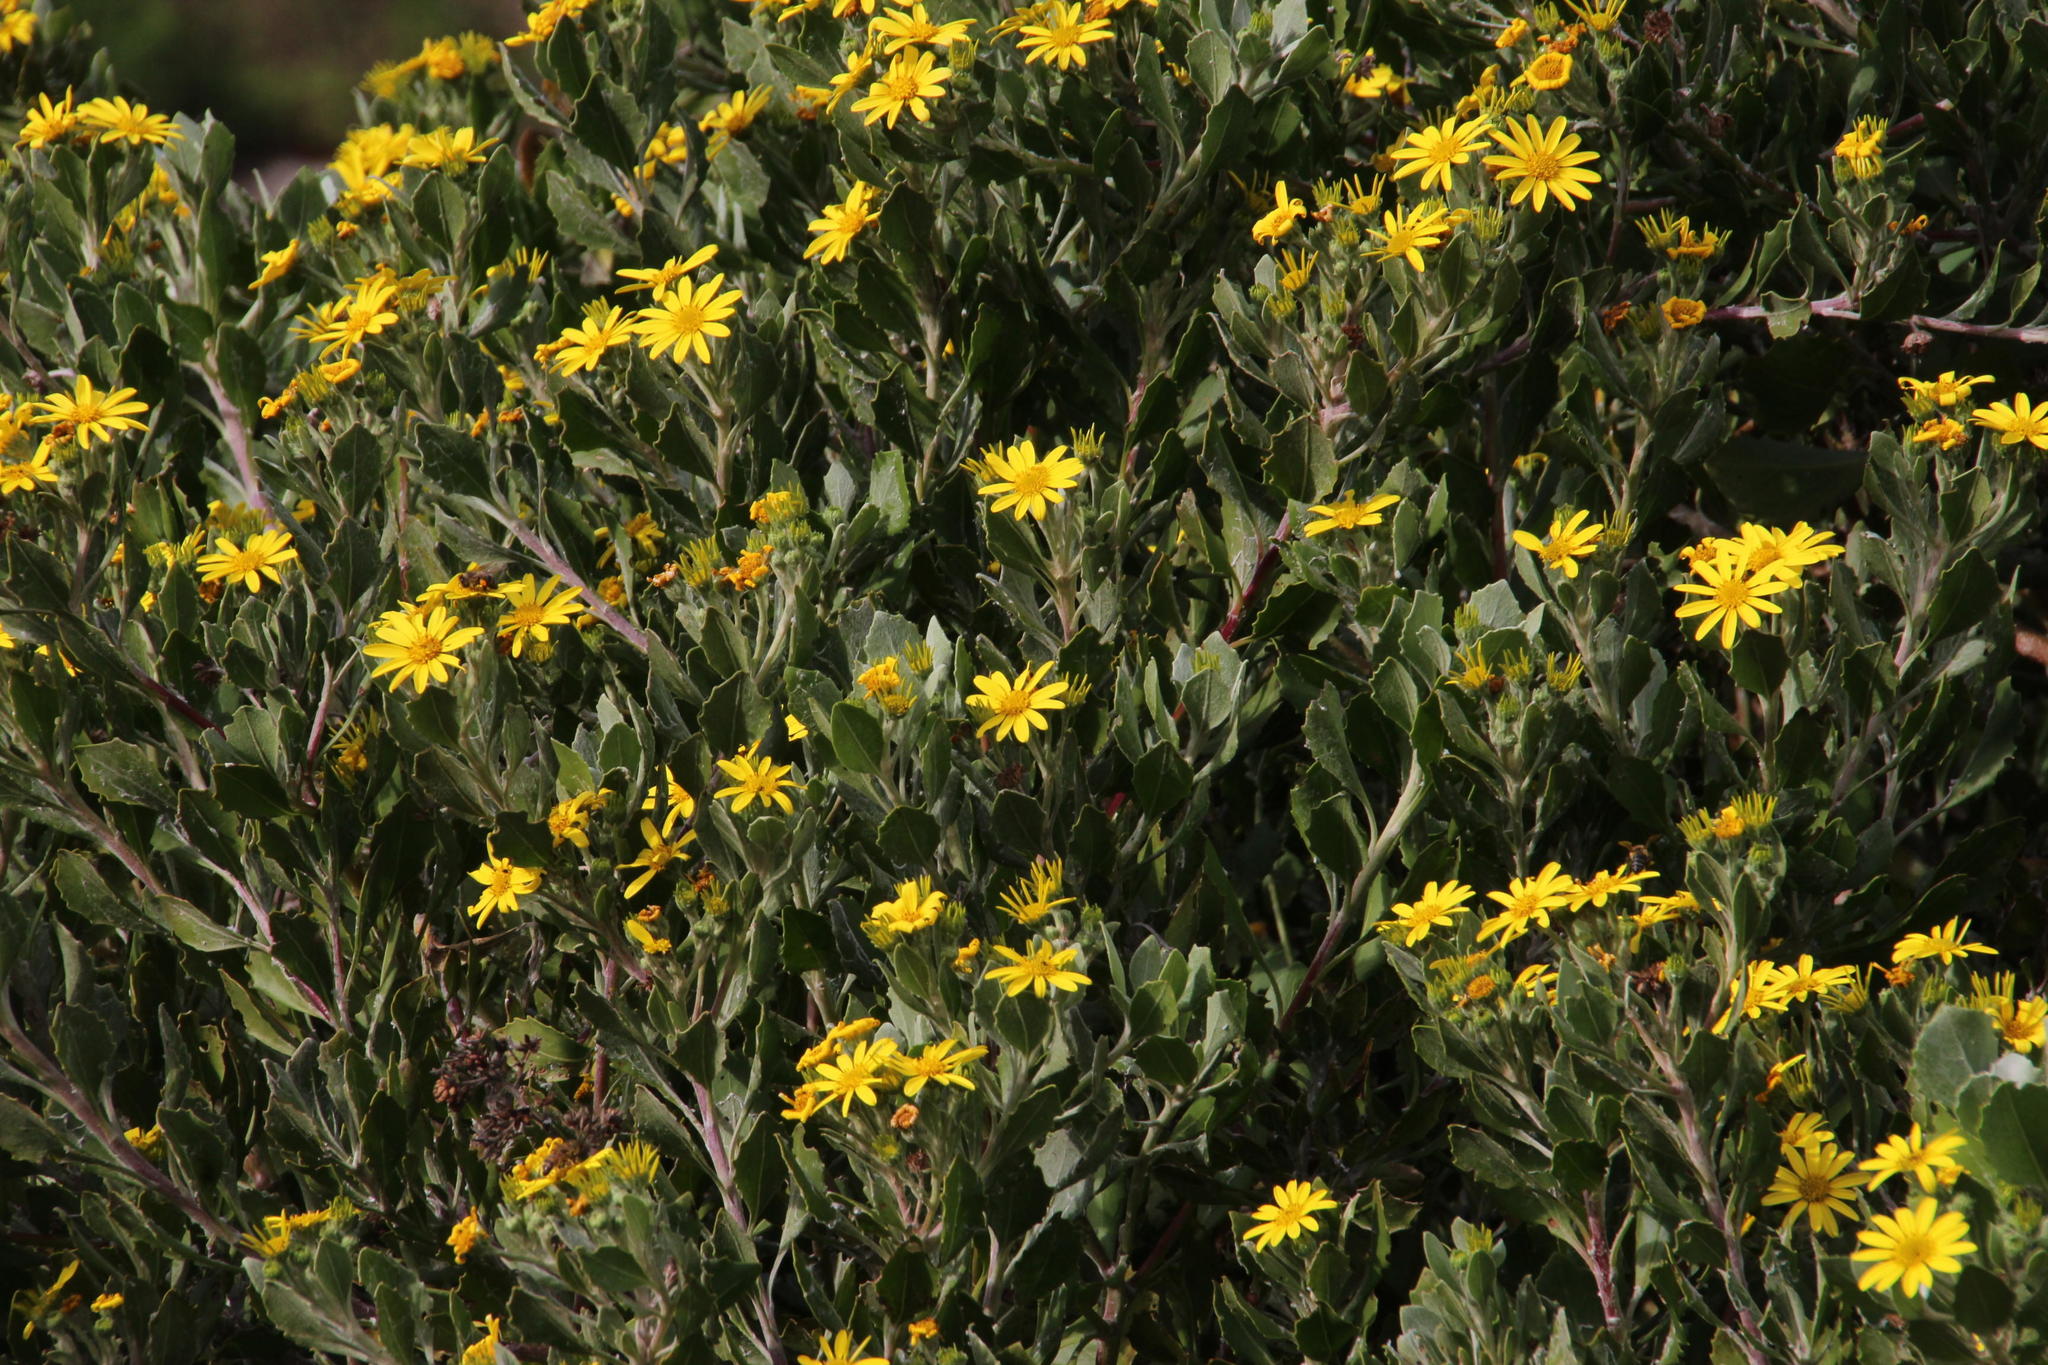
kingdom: Plantae
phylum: Tracheophyta
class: Magnoliopsida
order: Asterales
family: Asteraceae
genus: Osteospermum
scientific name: Osteospermum moniliferum
